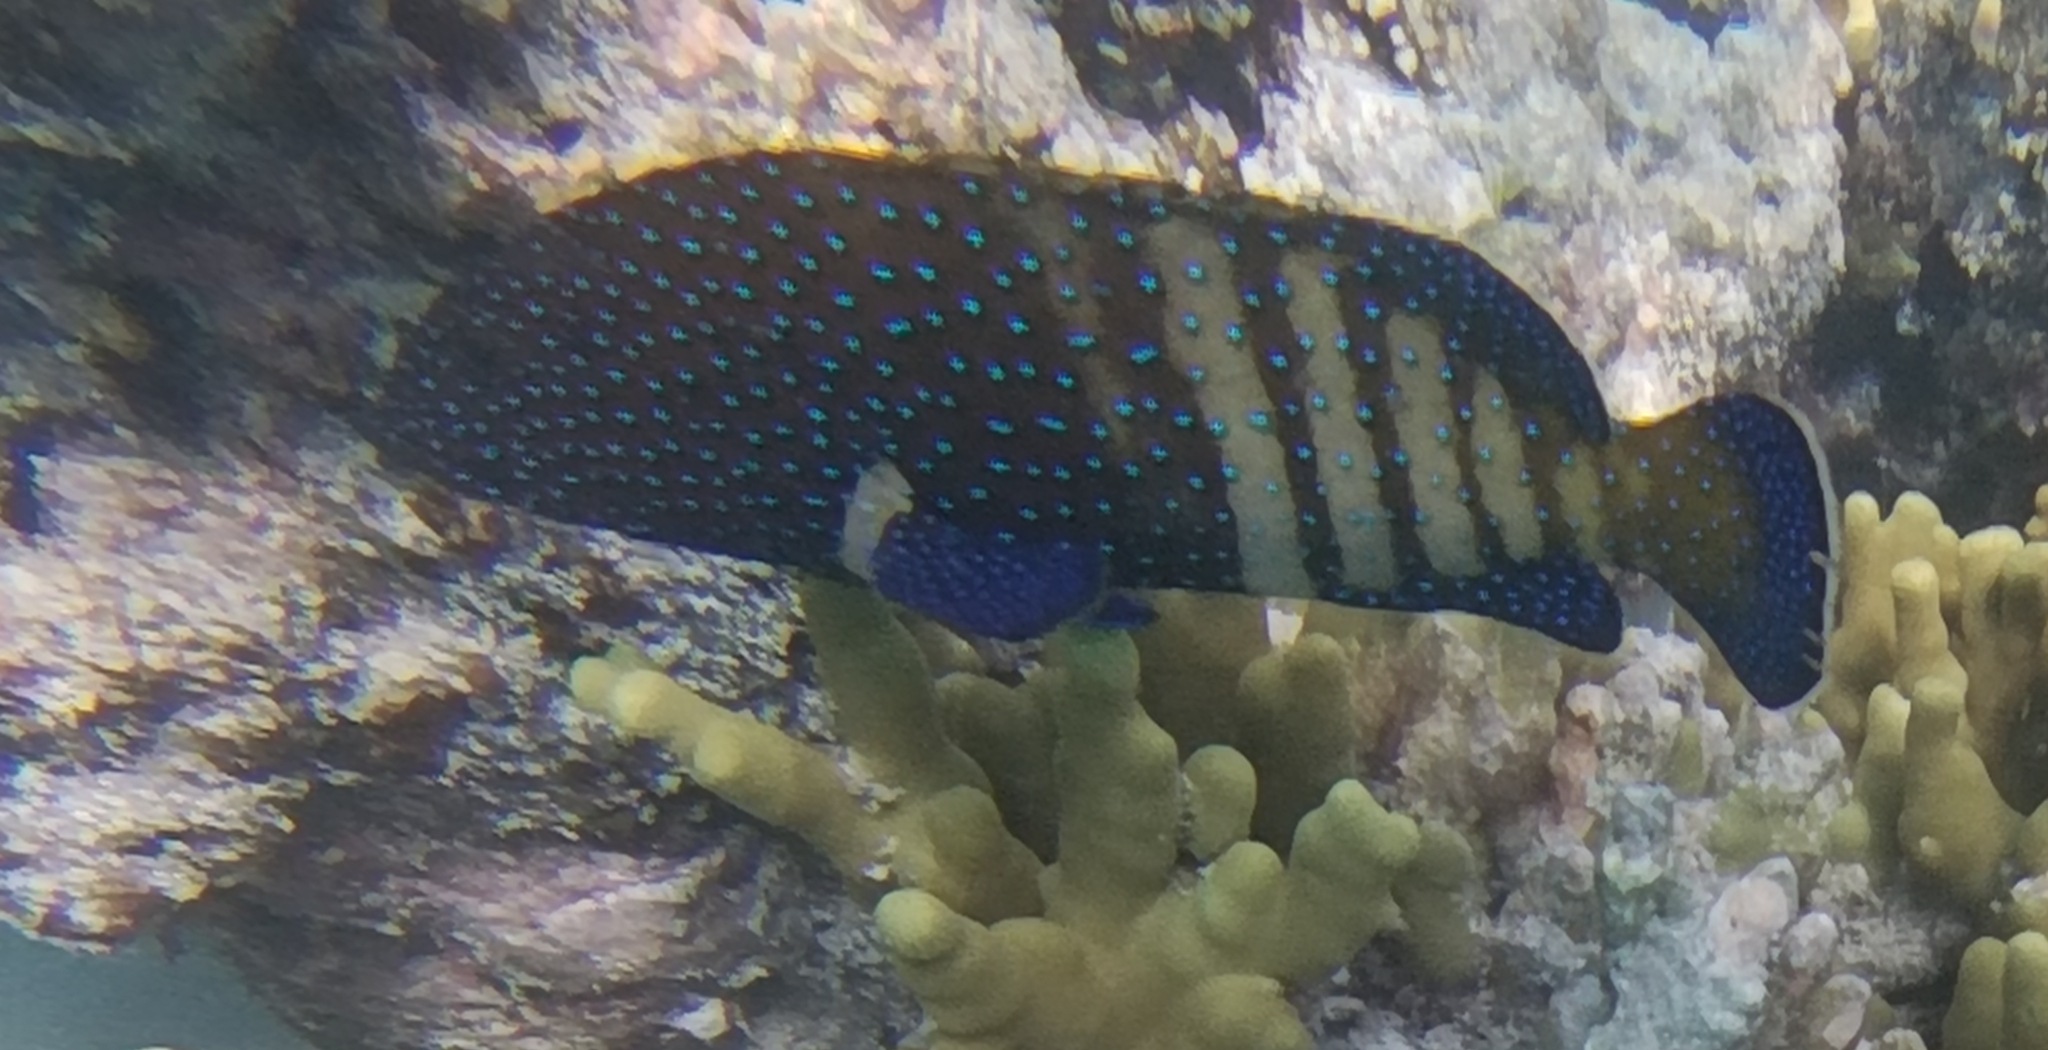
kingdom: Animalia
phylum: Chordata
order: Perciformes
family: Serranidae
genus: Cephalopholis
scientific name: Cephalopholis argus
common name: Peacock grouper
